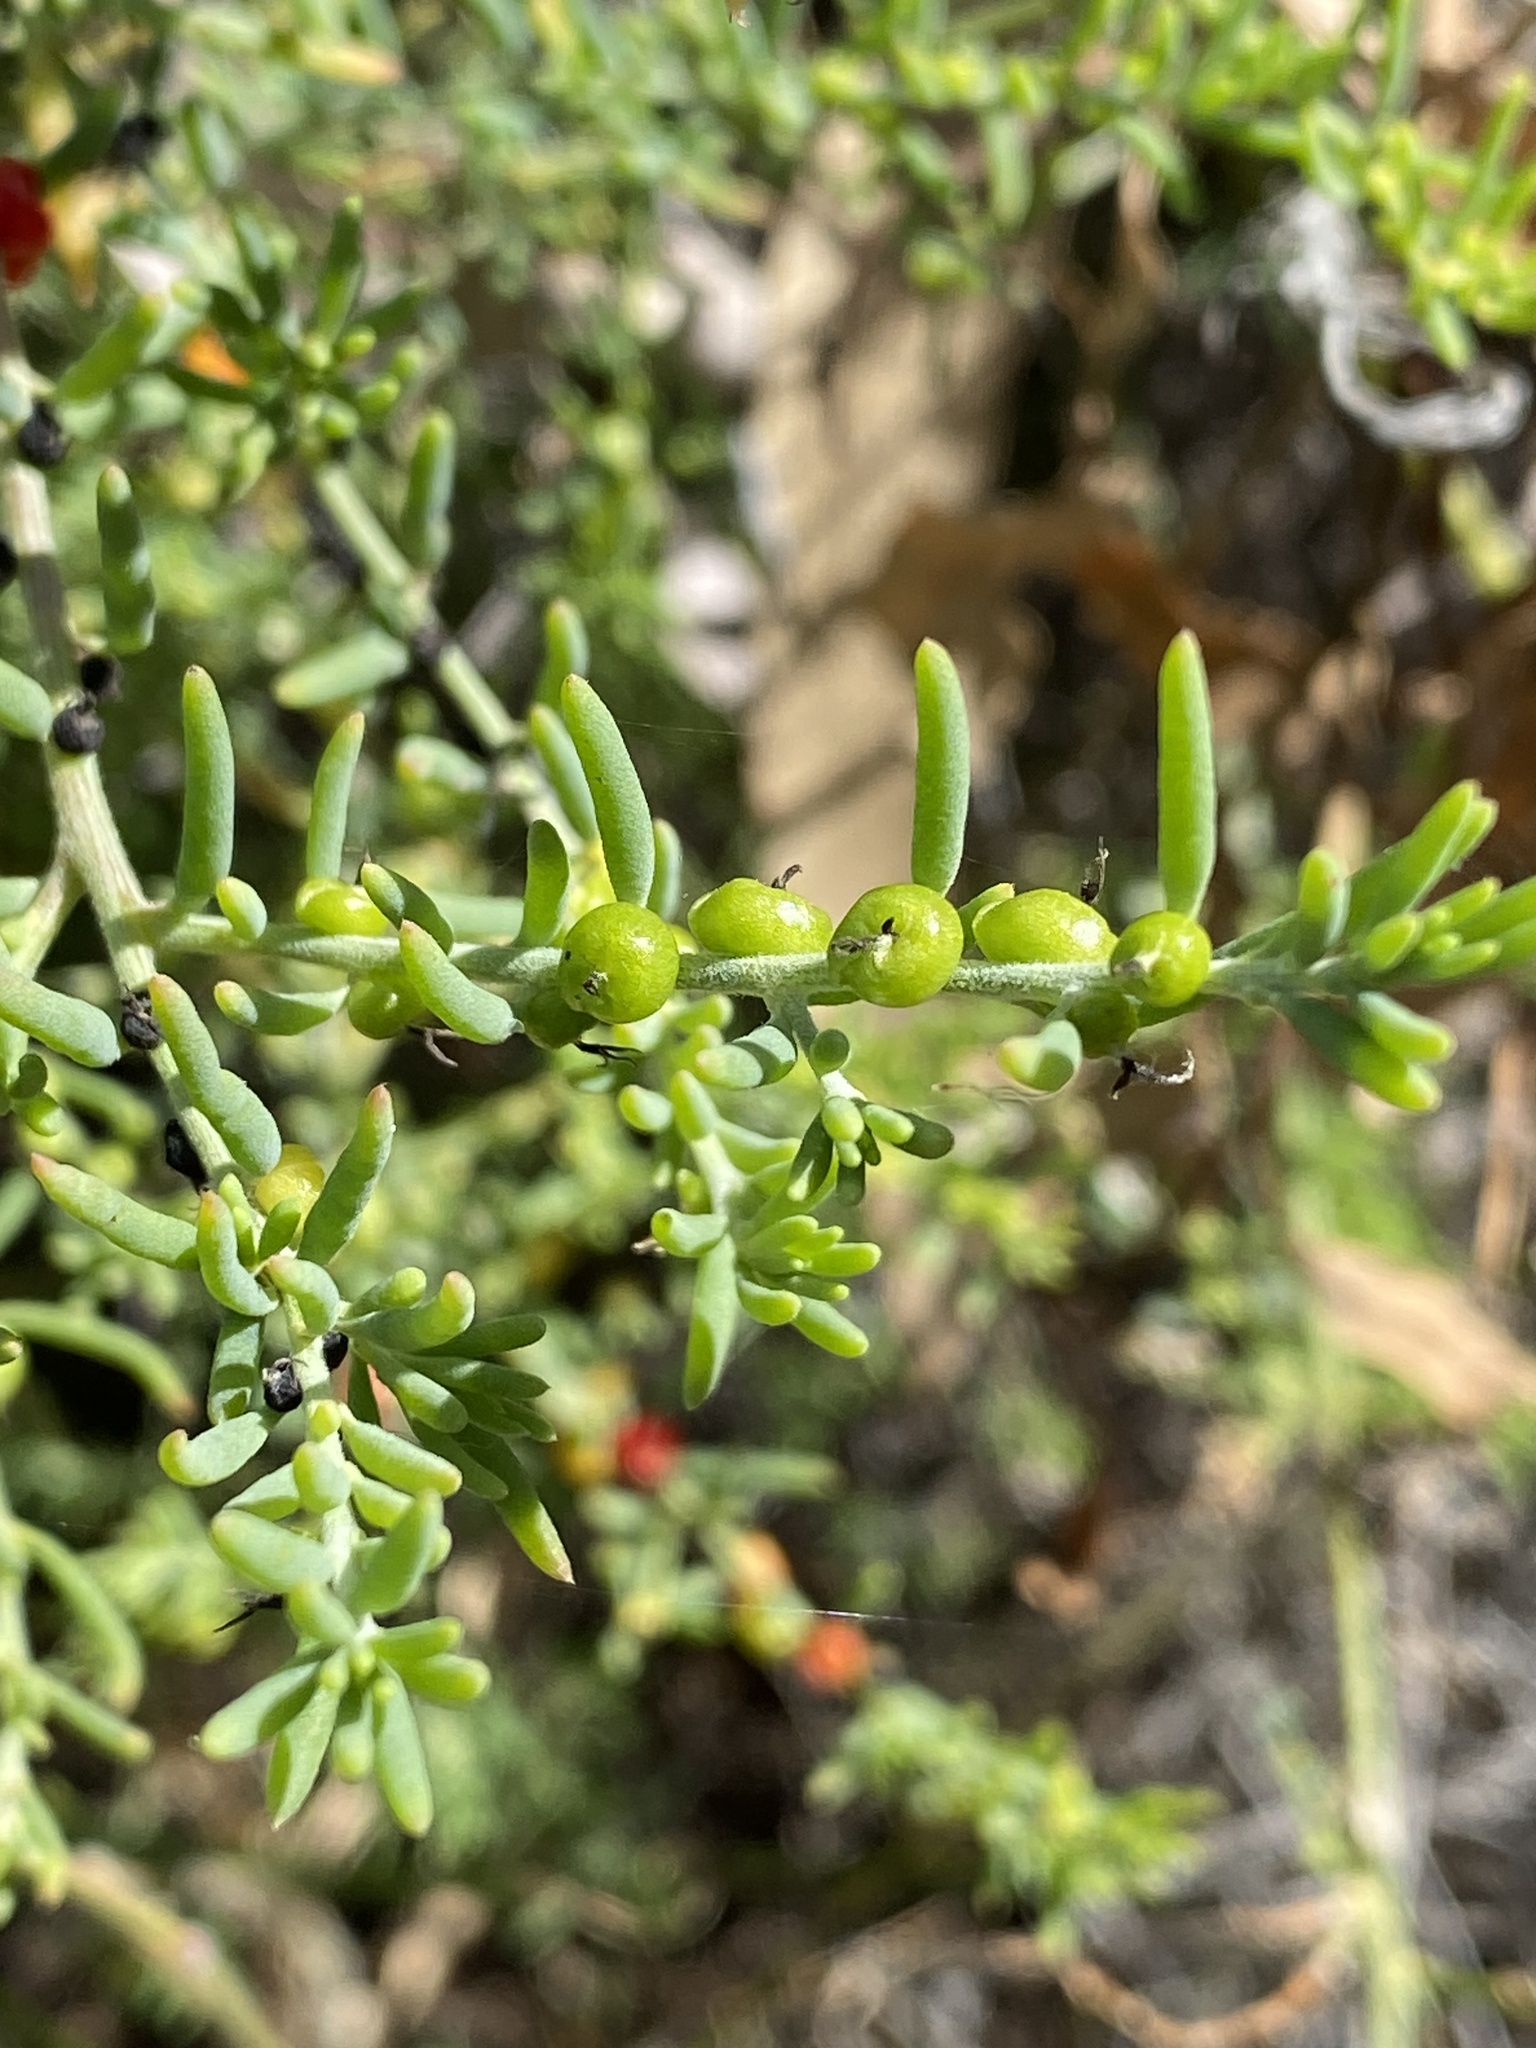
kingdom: Plantae
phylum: Tracheophyta
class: Magnoliopsida
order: Caryophyllales
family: Amaranthaceae
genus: Enchylaena
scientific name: Enchylaena tomentosa
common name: Ruby saltbush
